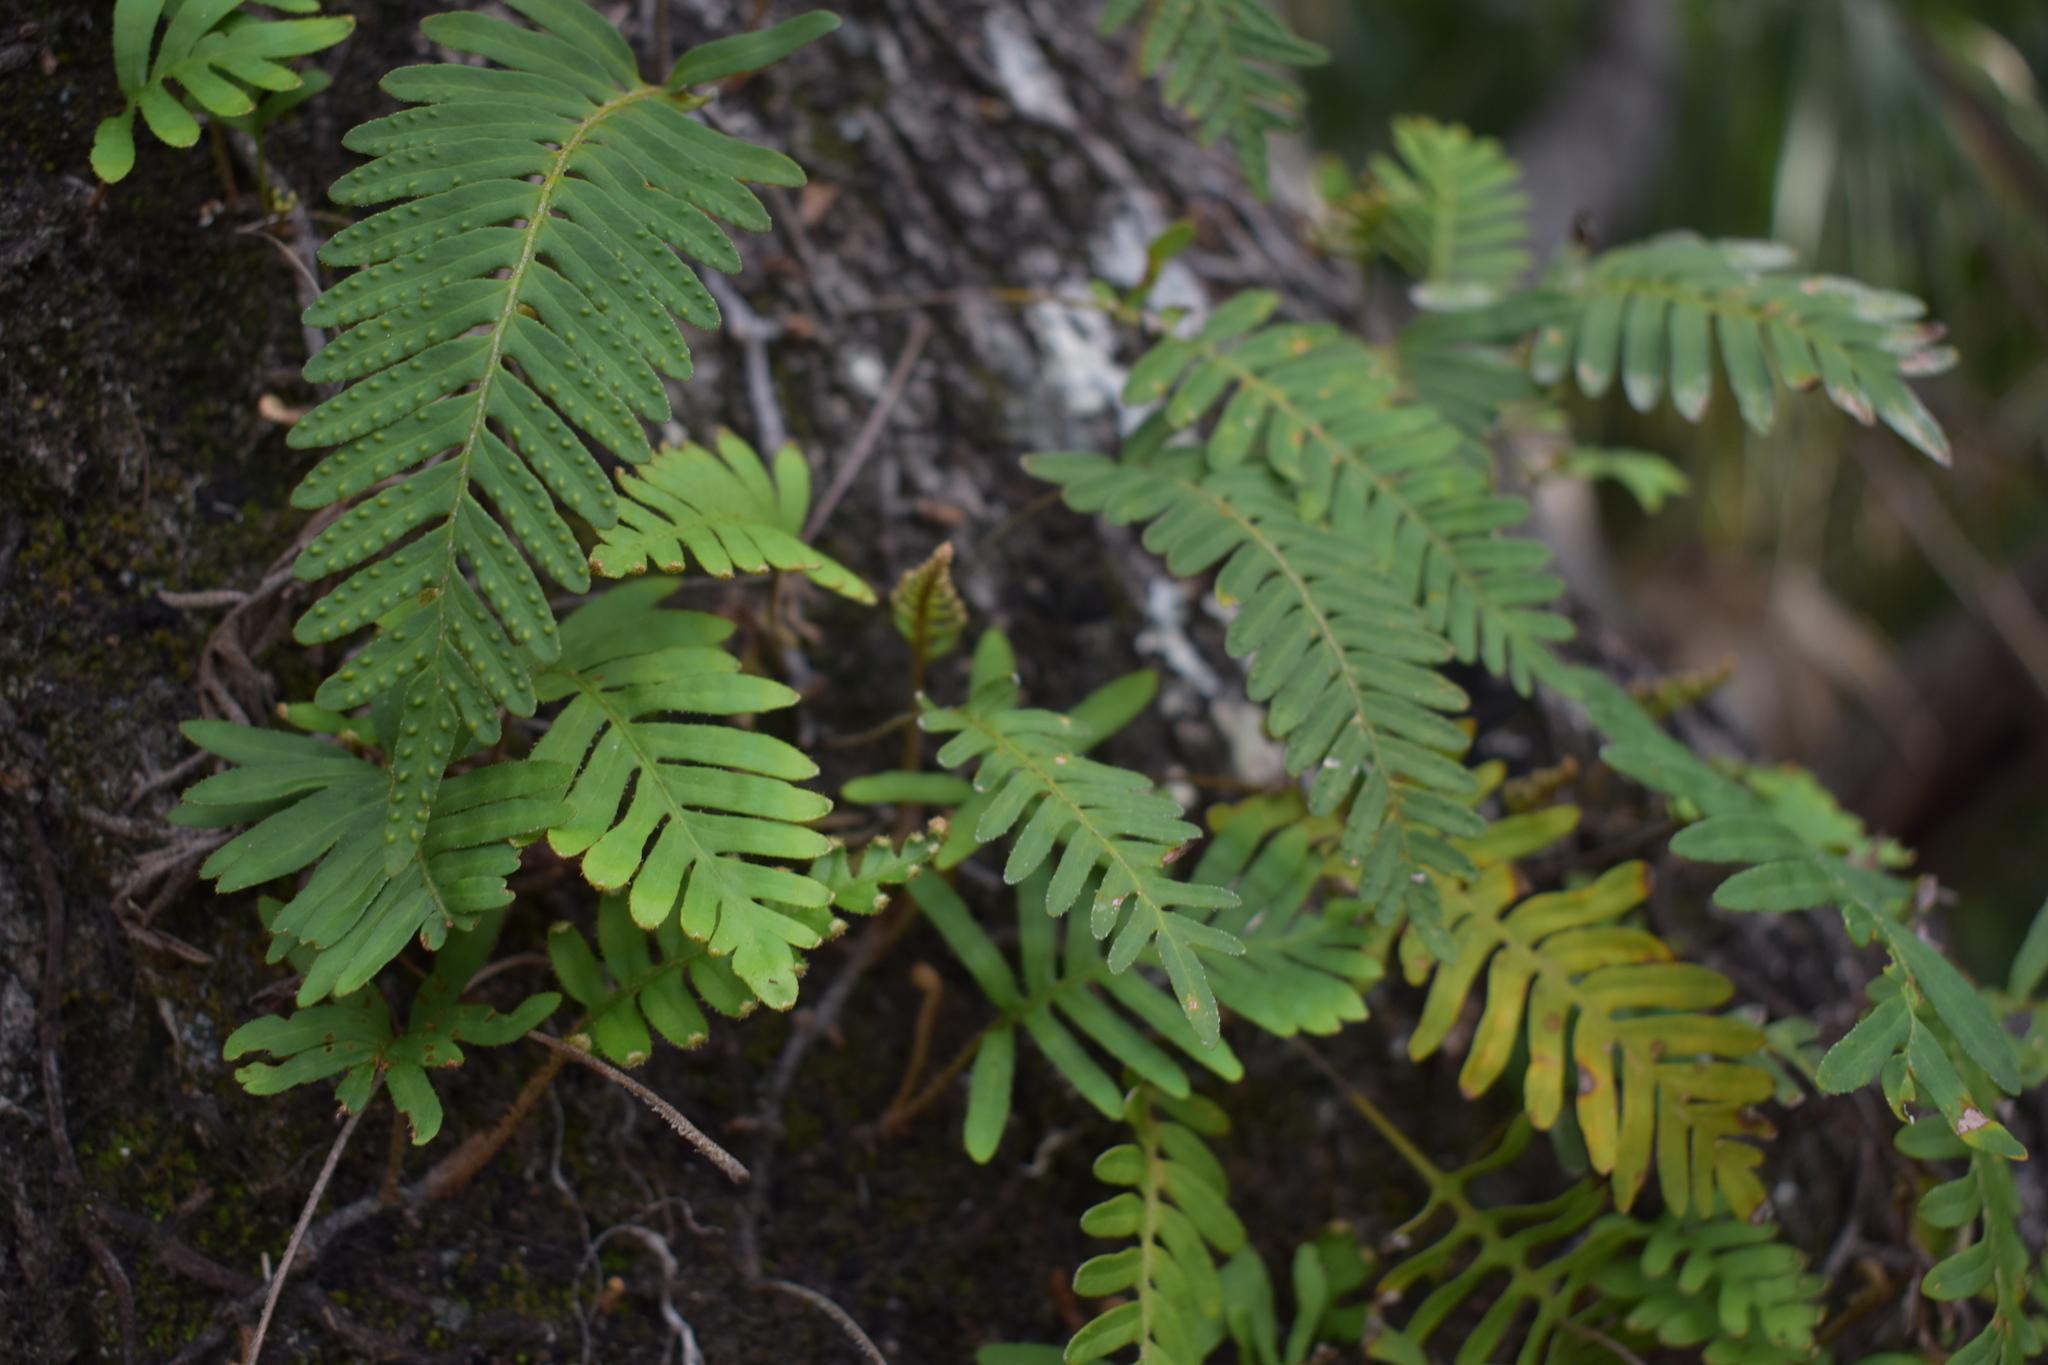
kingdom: Plantae
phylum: Tracheophyta
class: Polypodiopsida
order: Polypodiales
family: Polypodiaceae
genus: Pleopeltis
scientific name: Pleopeltis michauxiana
